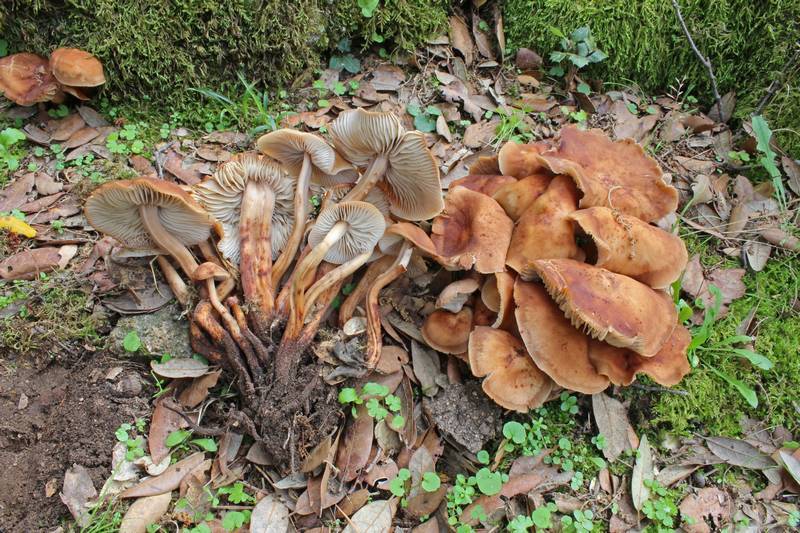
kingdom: Fungi
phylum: Basidiomycota
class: Agaricomycetes
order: Agaricales
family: Omphalotaceae
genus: Gymnopus
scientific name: Gymnopus fusipes
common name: Spindle shank
